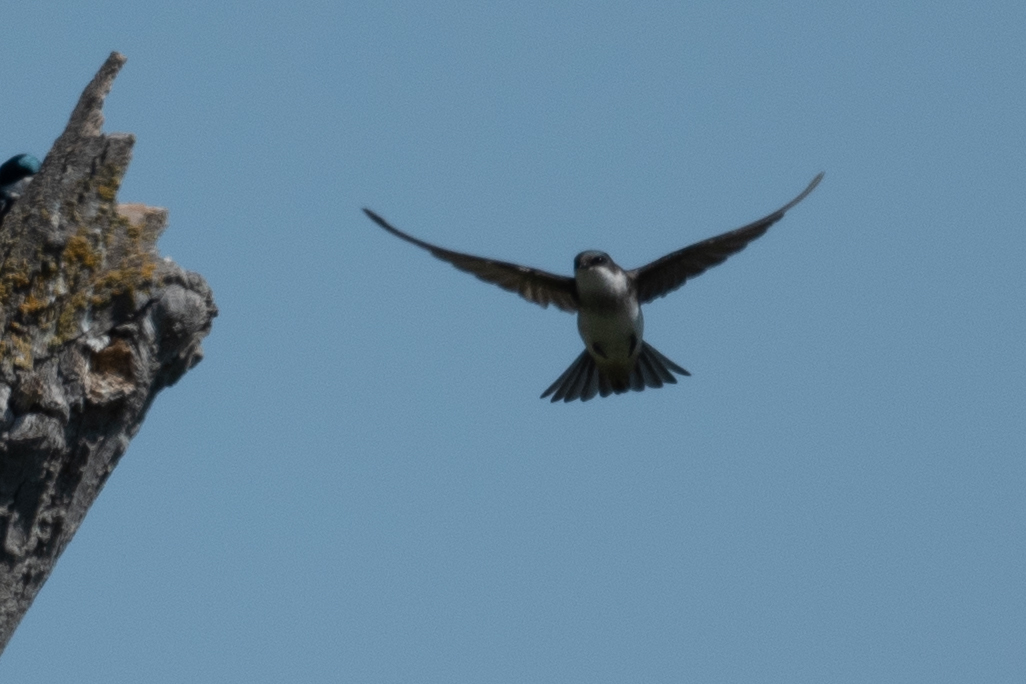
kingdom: Animalia
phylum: Chordata
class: Aves
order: Passeriformes
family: Hirundinidae
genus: Tachycineta
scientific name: Tachycineta bicolor
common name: Tree swallow
